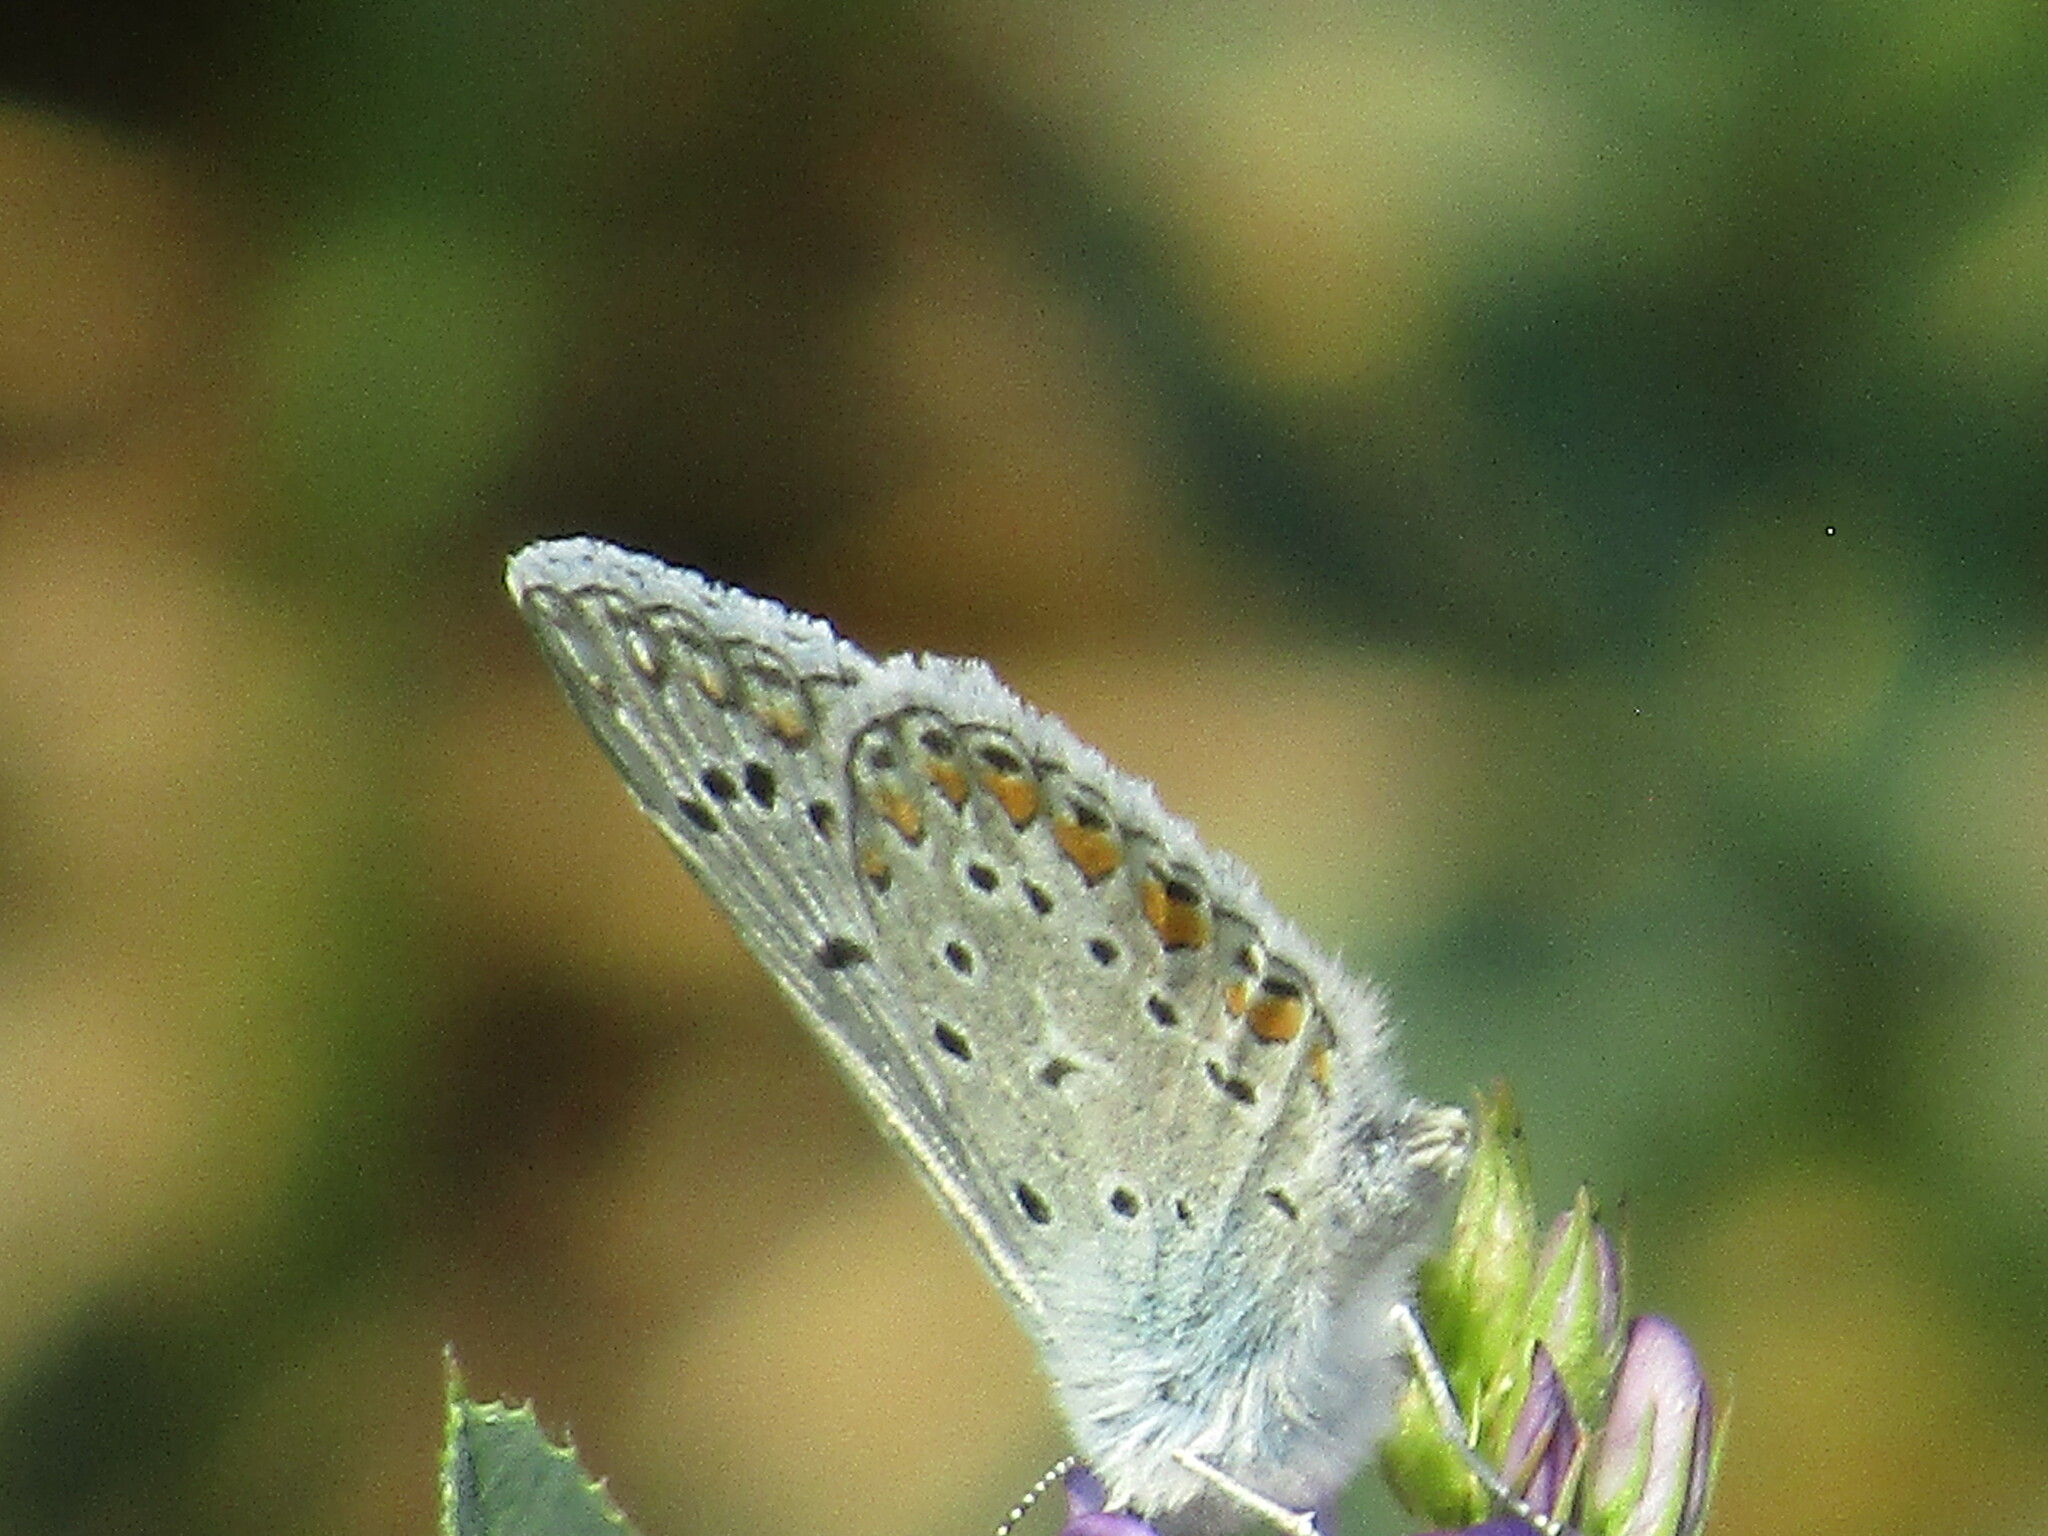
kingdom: Animalia
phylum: Arthropoda
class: Insecta
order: Lepidoptera
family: Lycaenidae
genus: Polyommatus
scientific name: Polyommatus icarus
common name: Common blue
